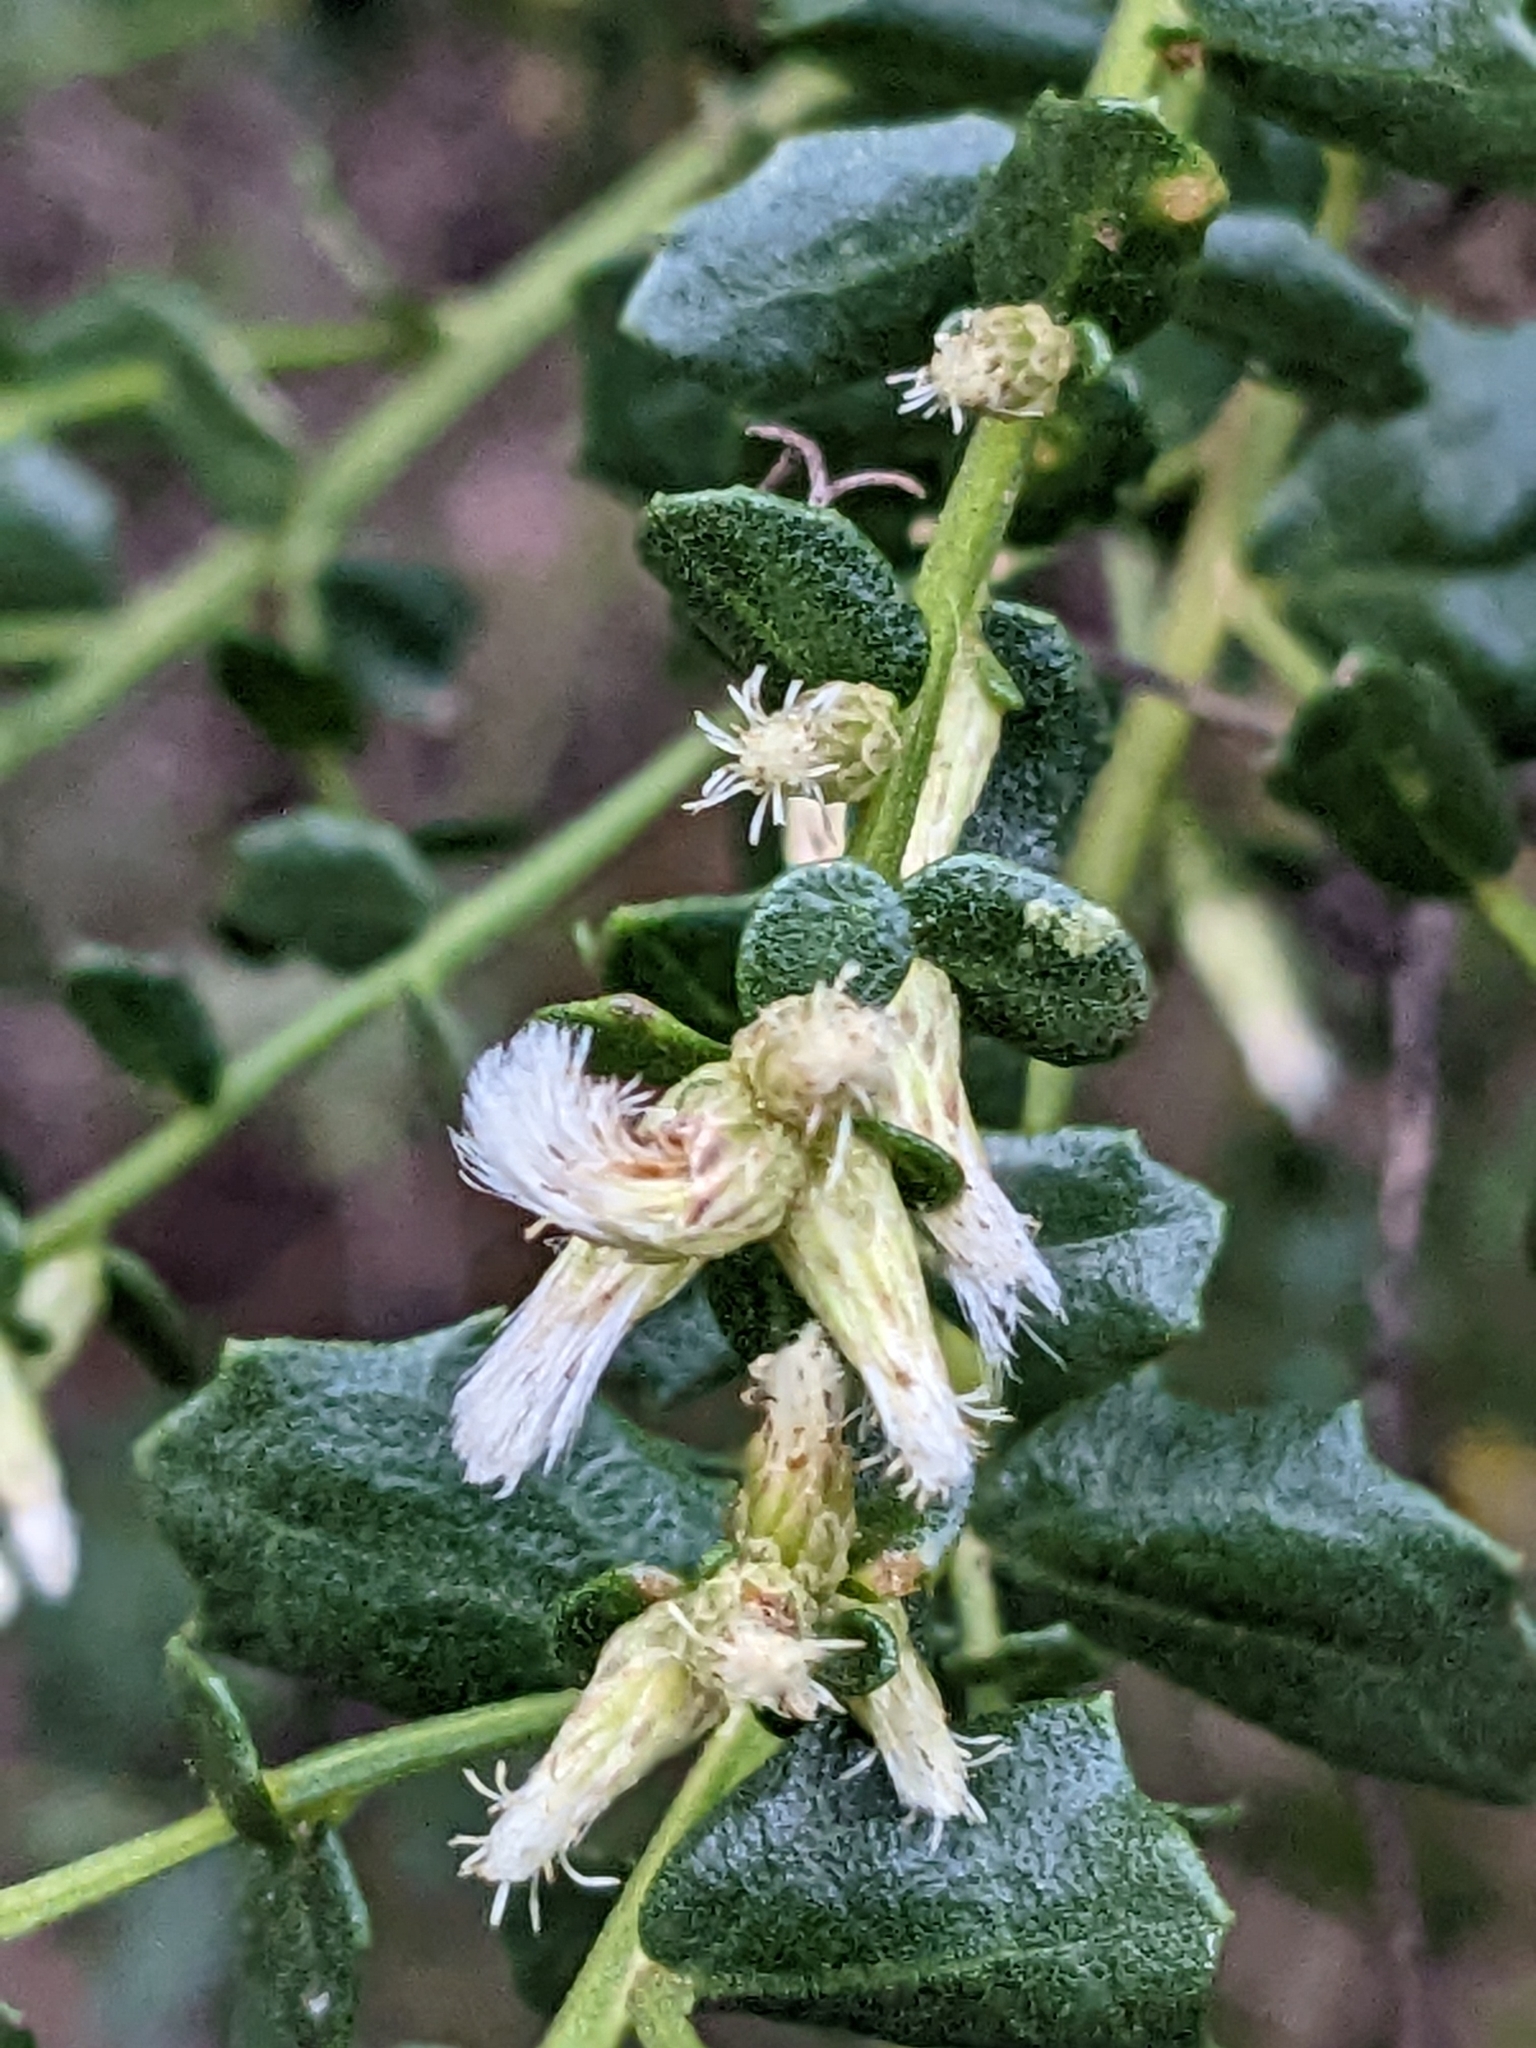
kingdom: Plantae
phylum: Tracheophyta
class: Magnoliopsida
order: Asterales
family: Asteraceae
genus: Baccharis
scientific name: Baccharis pilularis
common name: Coyotebrush
